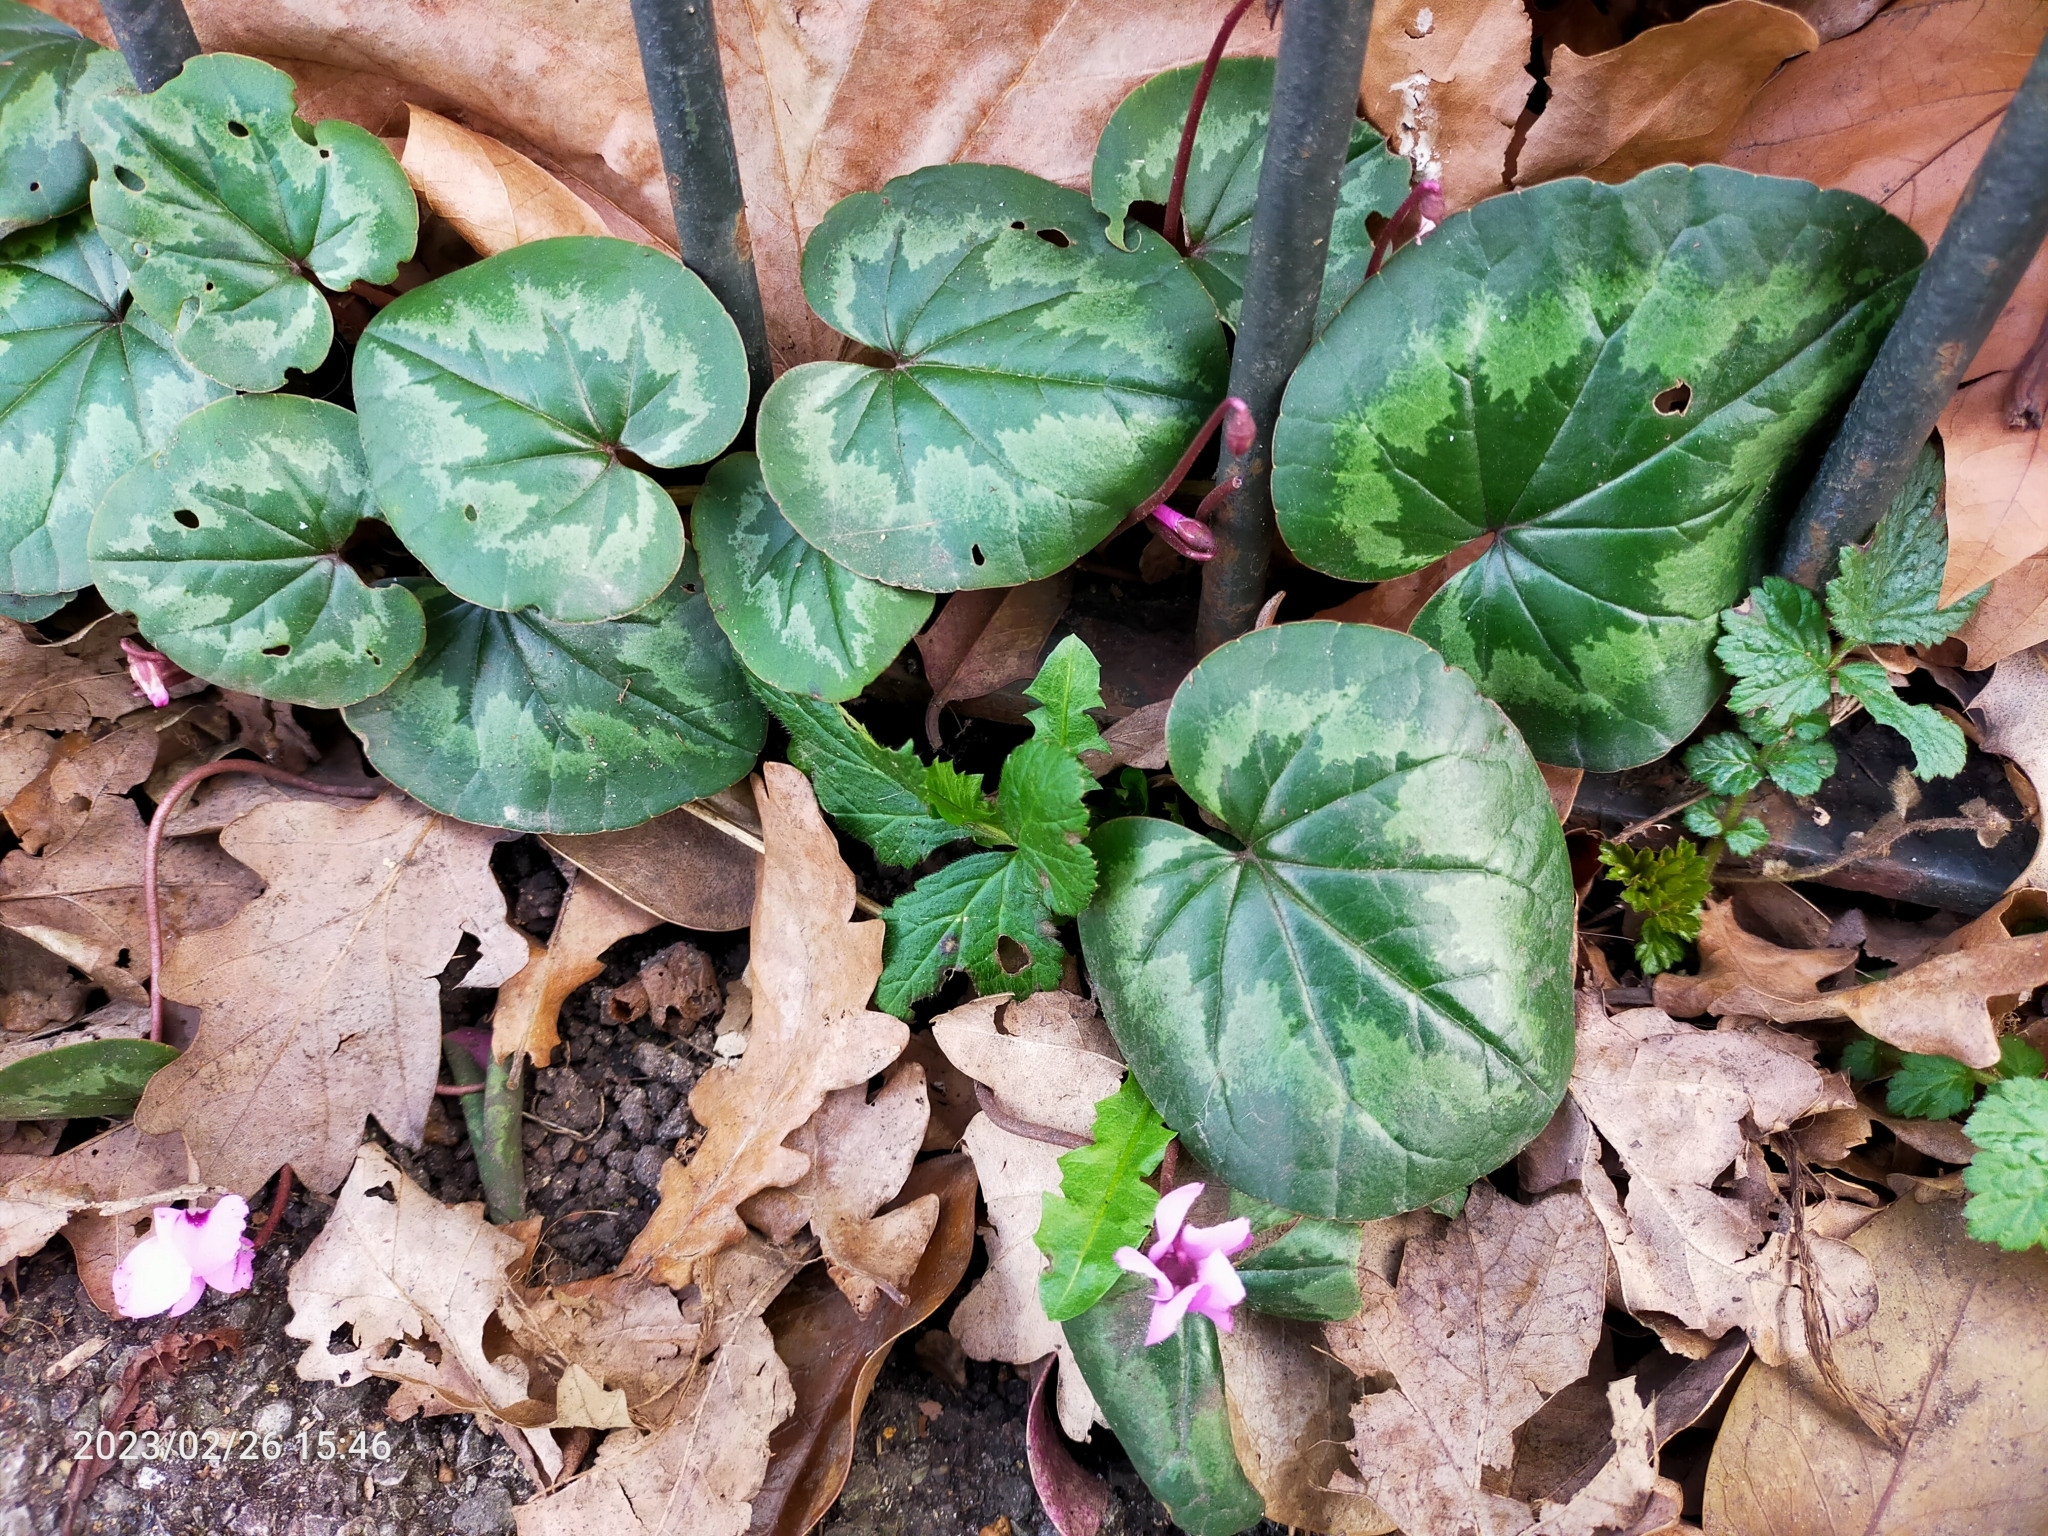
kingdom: Plantae
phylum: Tracheophyta
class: Magnoliopsida
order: Ericales
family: Primulaceae
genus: Cyclamen
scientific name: Cyclamen coum
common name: Eastern sowbread
